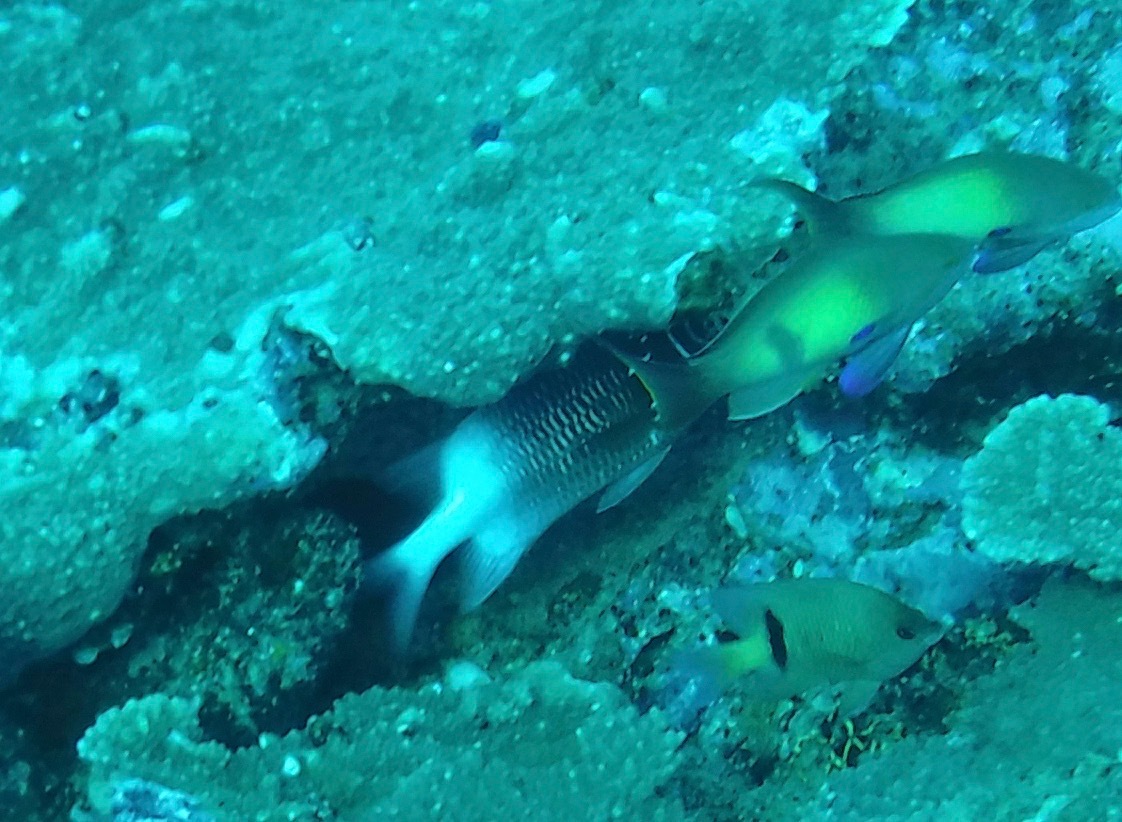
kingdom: Animalia
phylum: Chordata
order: Beryciformes
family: Holocentridae
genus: Sargocentron
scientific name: Sargocentron caudimaculatum
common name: Fanfin soldier
